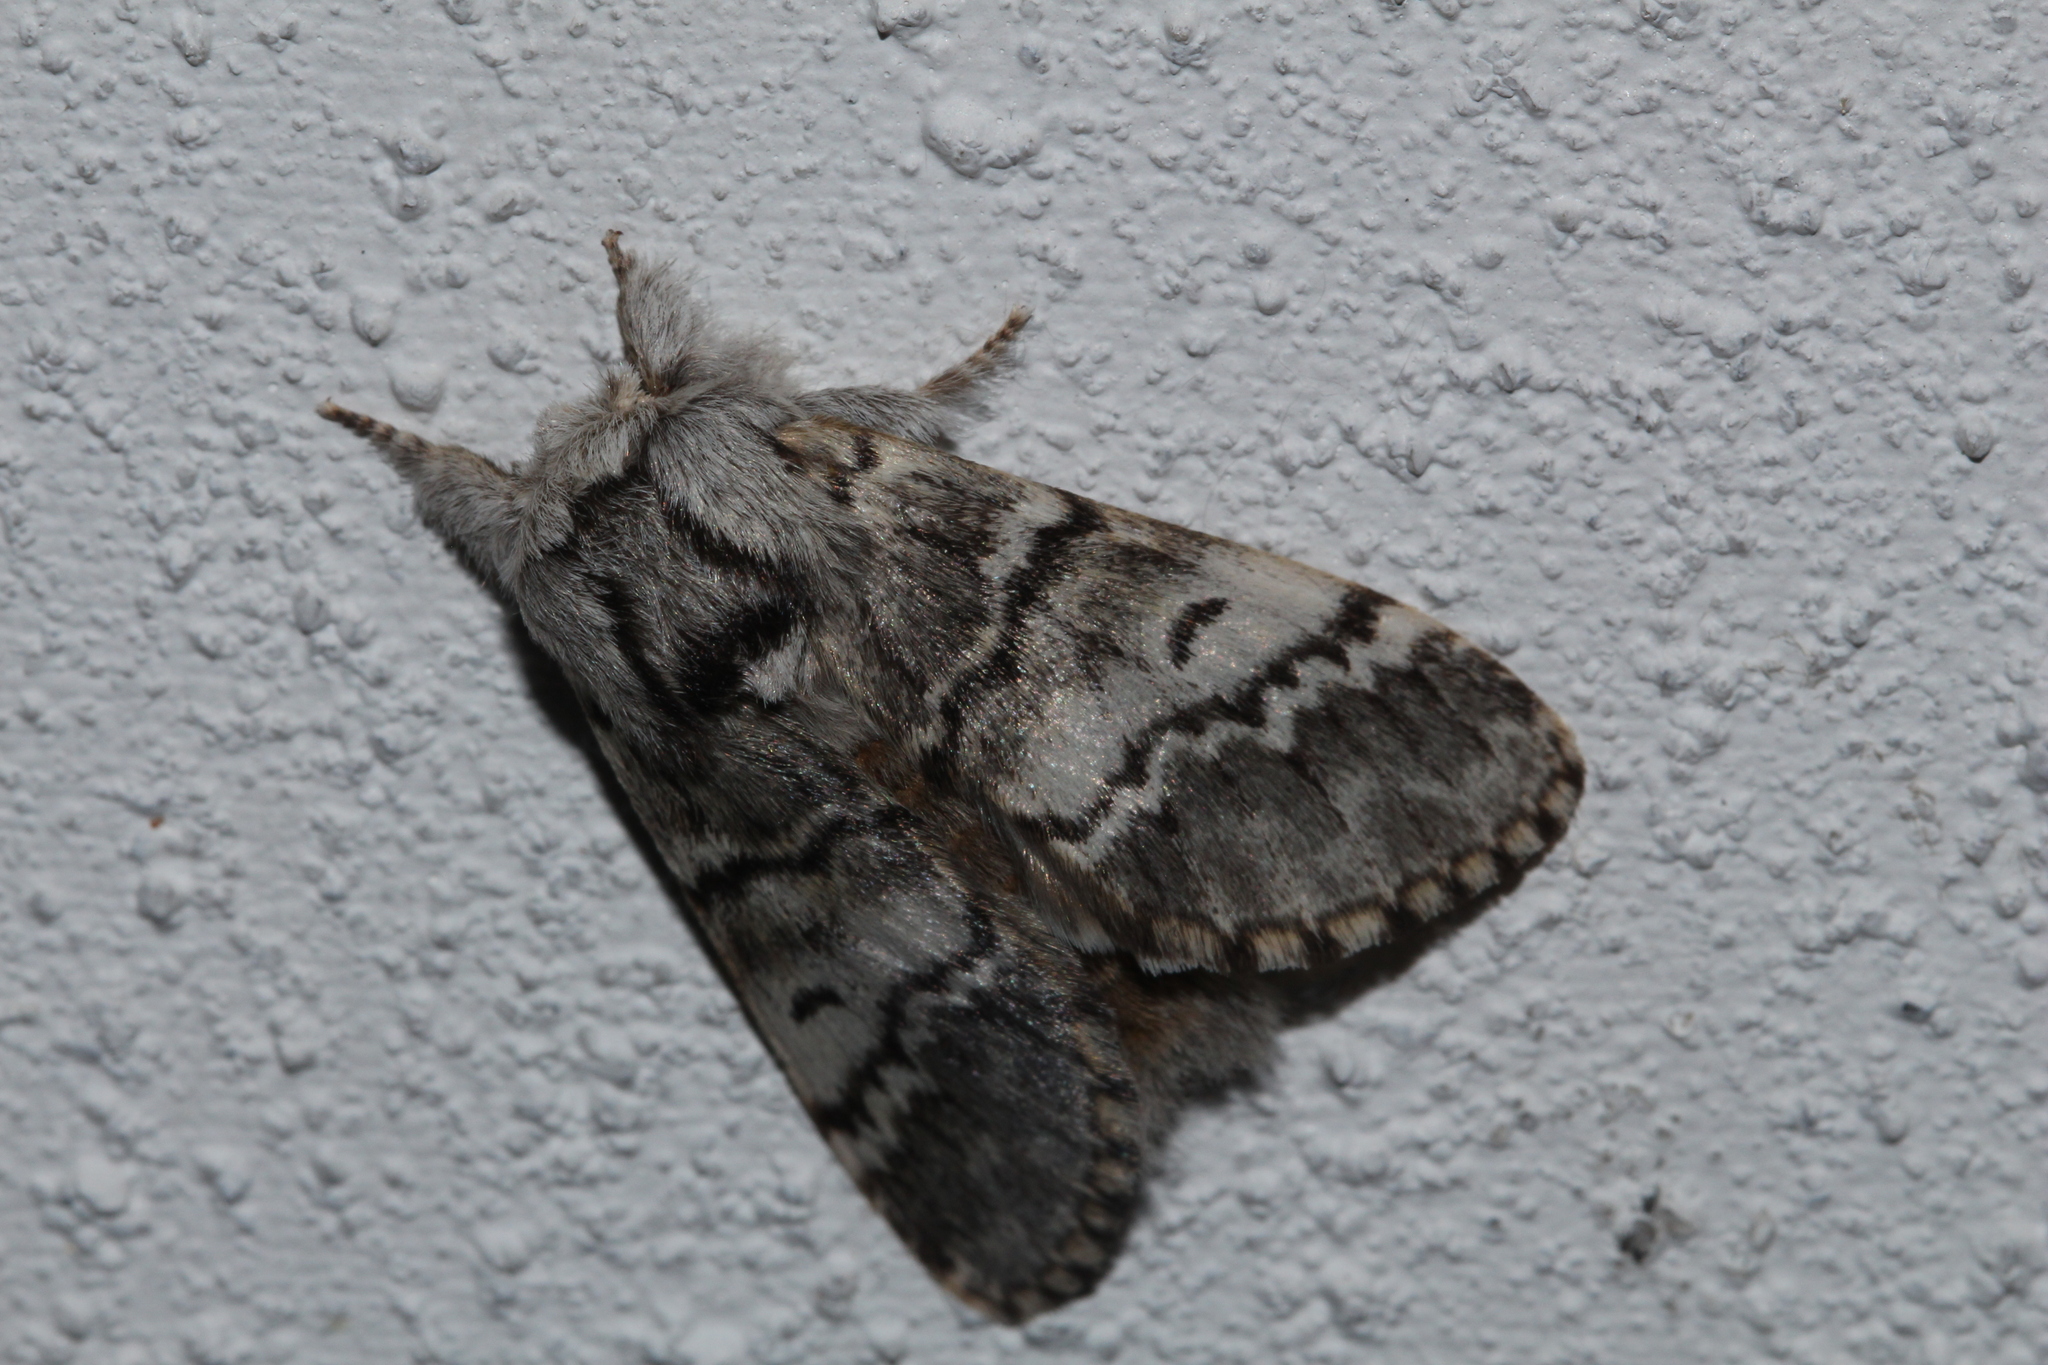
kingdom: Animalia
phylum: Arthropoda
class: Insecta
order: Lepidoptera
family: Notodontidae
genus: Drymonia
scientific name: Drymonia ruficornis
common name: Lunar marbled brown
